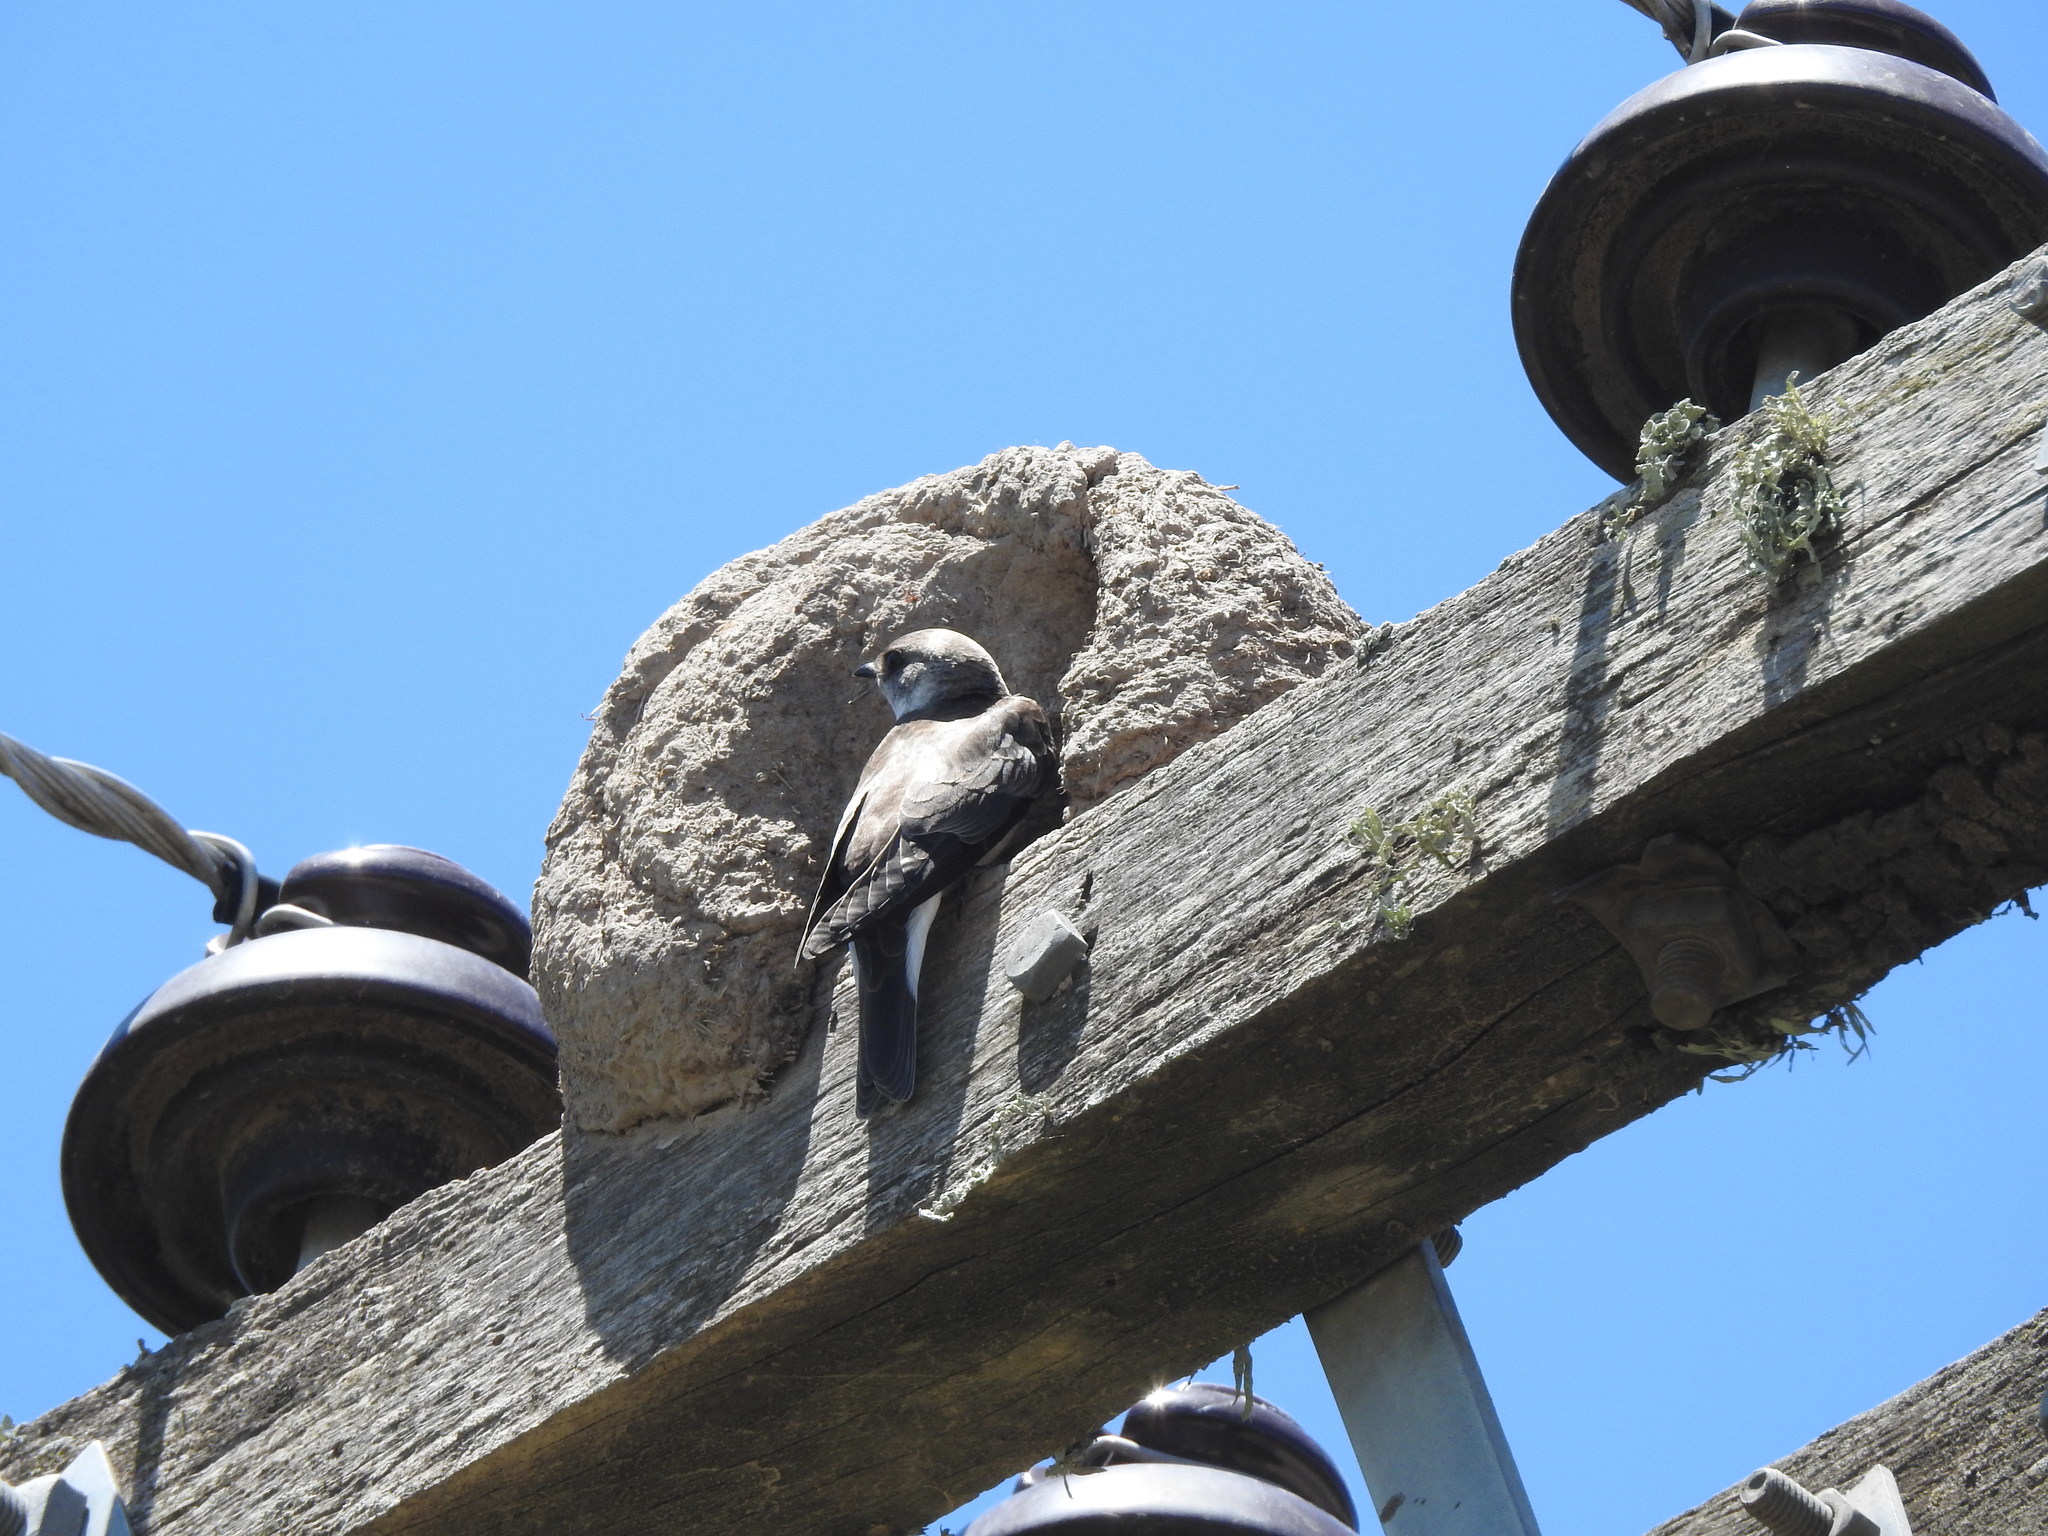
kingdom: Animalia
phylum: Chordata
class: Aves
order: Passeriformes
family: Hirundinidae
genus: Progne
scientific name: Progne tapera
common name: Brown-chested martin
